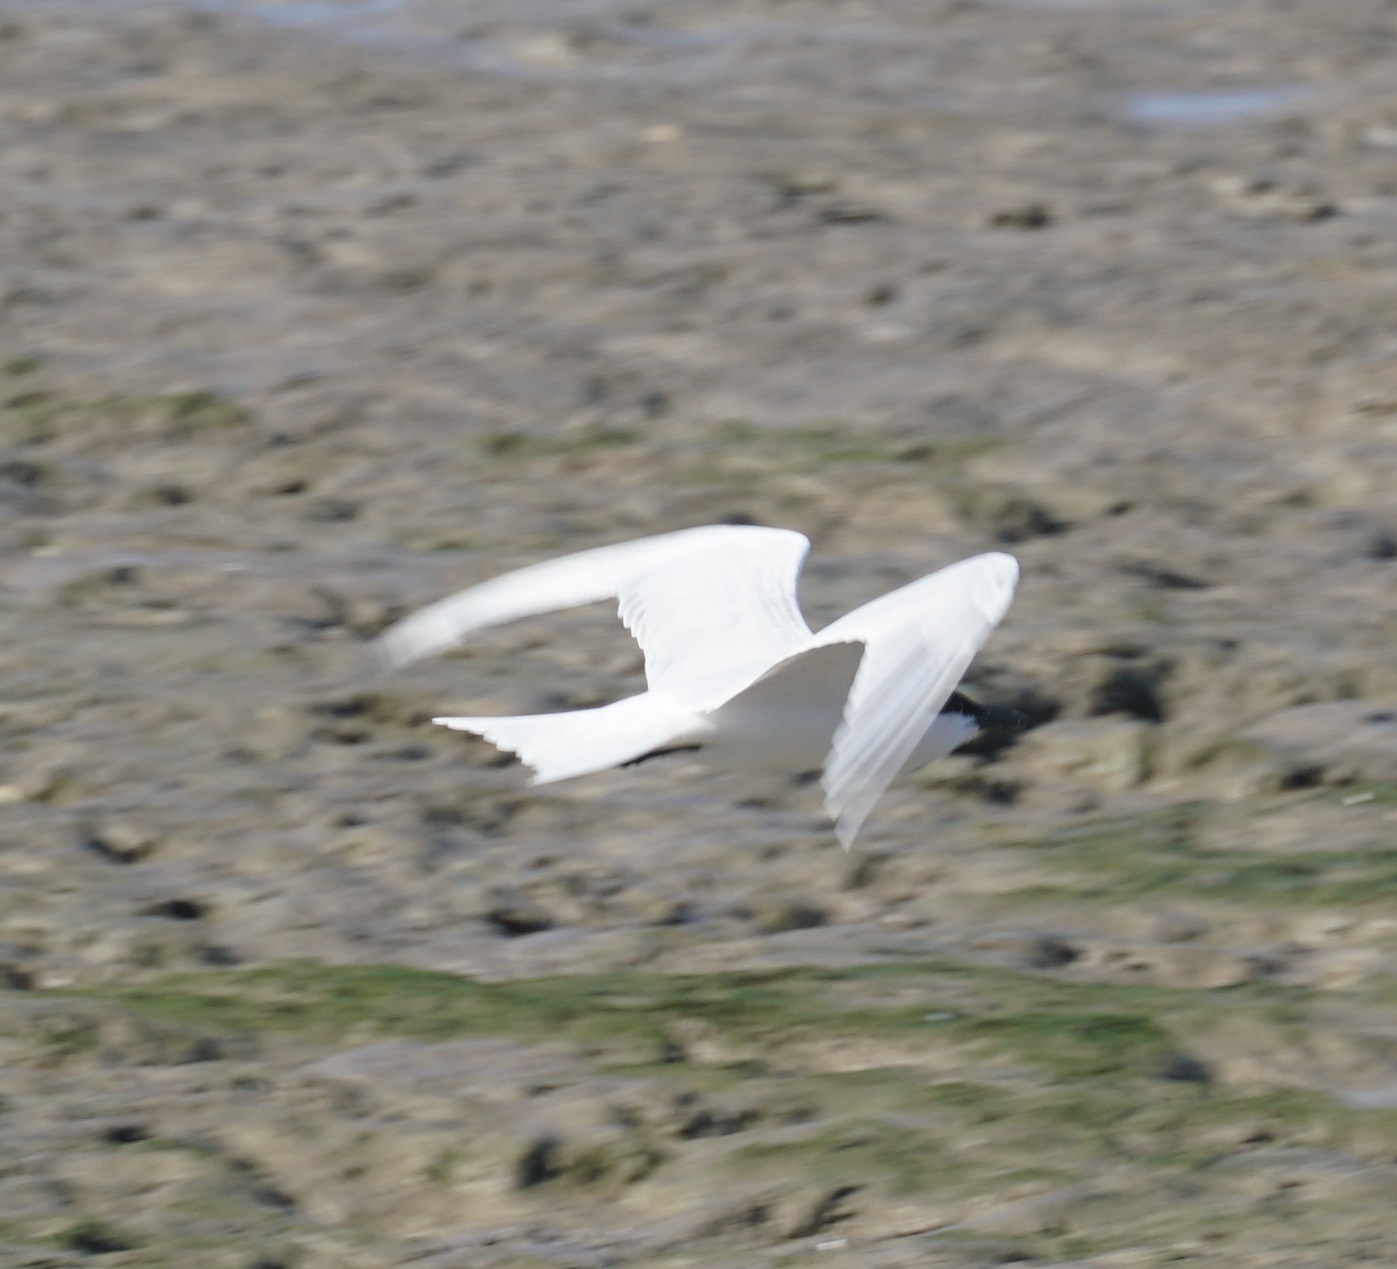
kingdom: Animalia
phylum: Chordata
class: Aves
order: Charadriiformes
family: Laridae
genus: Gelochelidon
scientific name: Gelochelidon macrotarsa
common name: Australian tern
